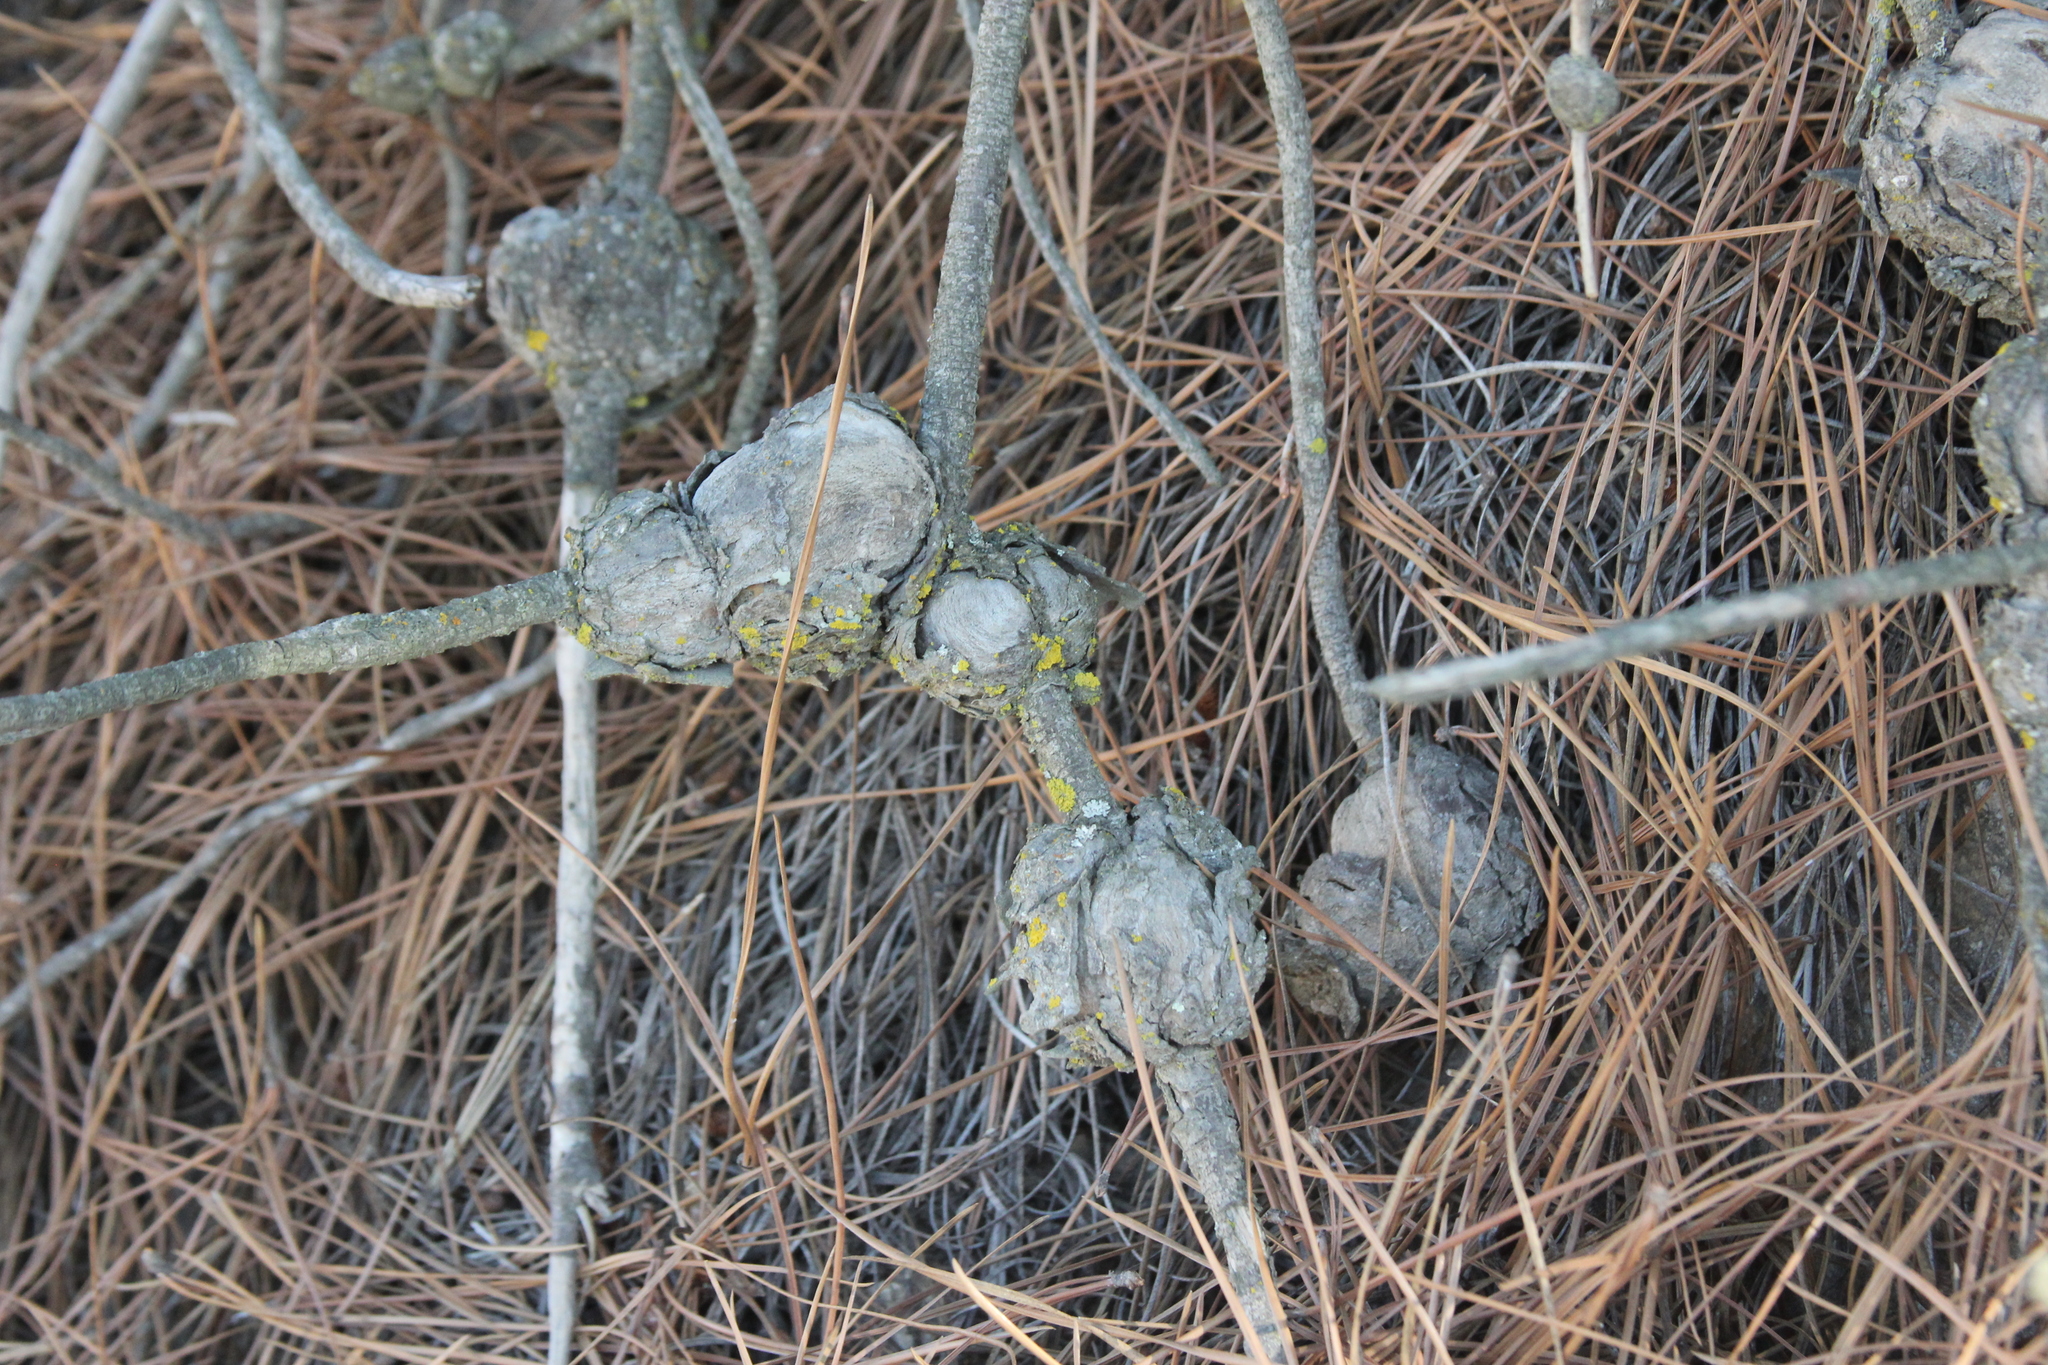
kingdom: Fungi
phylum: Basidiomycota
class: Pucciniomycetes
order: Pucciniales
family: Cronartiaceae
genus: Cronartium
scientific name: Cronartium harknessii
